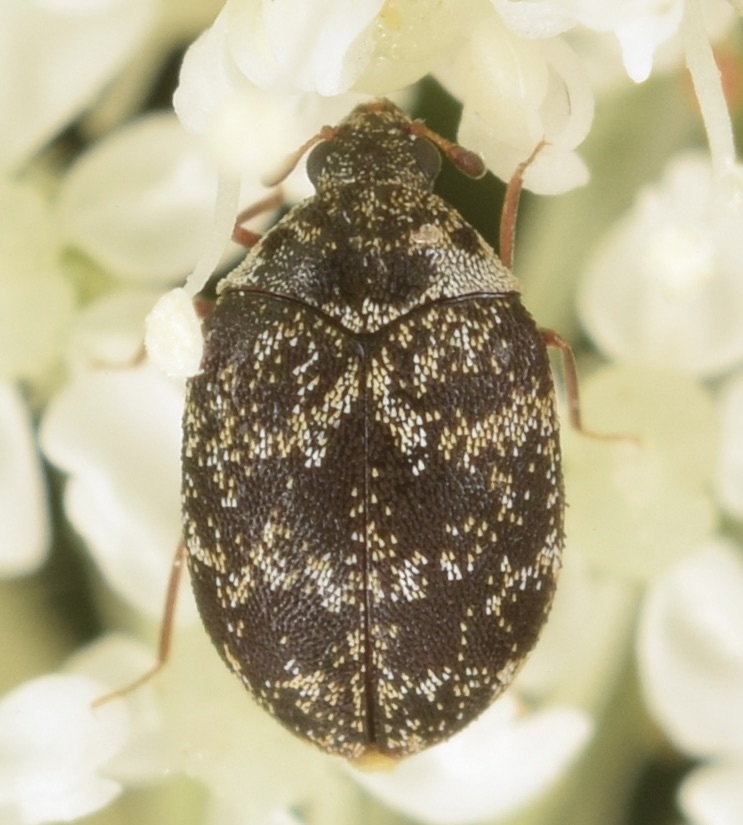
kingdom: Animalia
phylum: Arthropoda
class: Insecta
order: Coleoptera
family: Dermestidae
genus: Anthrenus
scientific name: Anthrenus museorum
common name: Museum beetle
